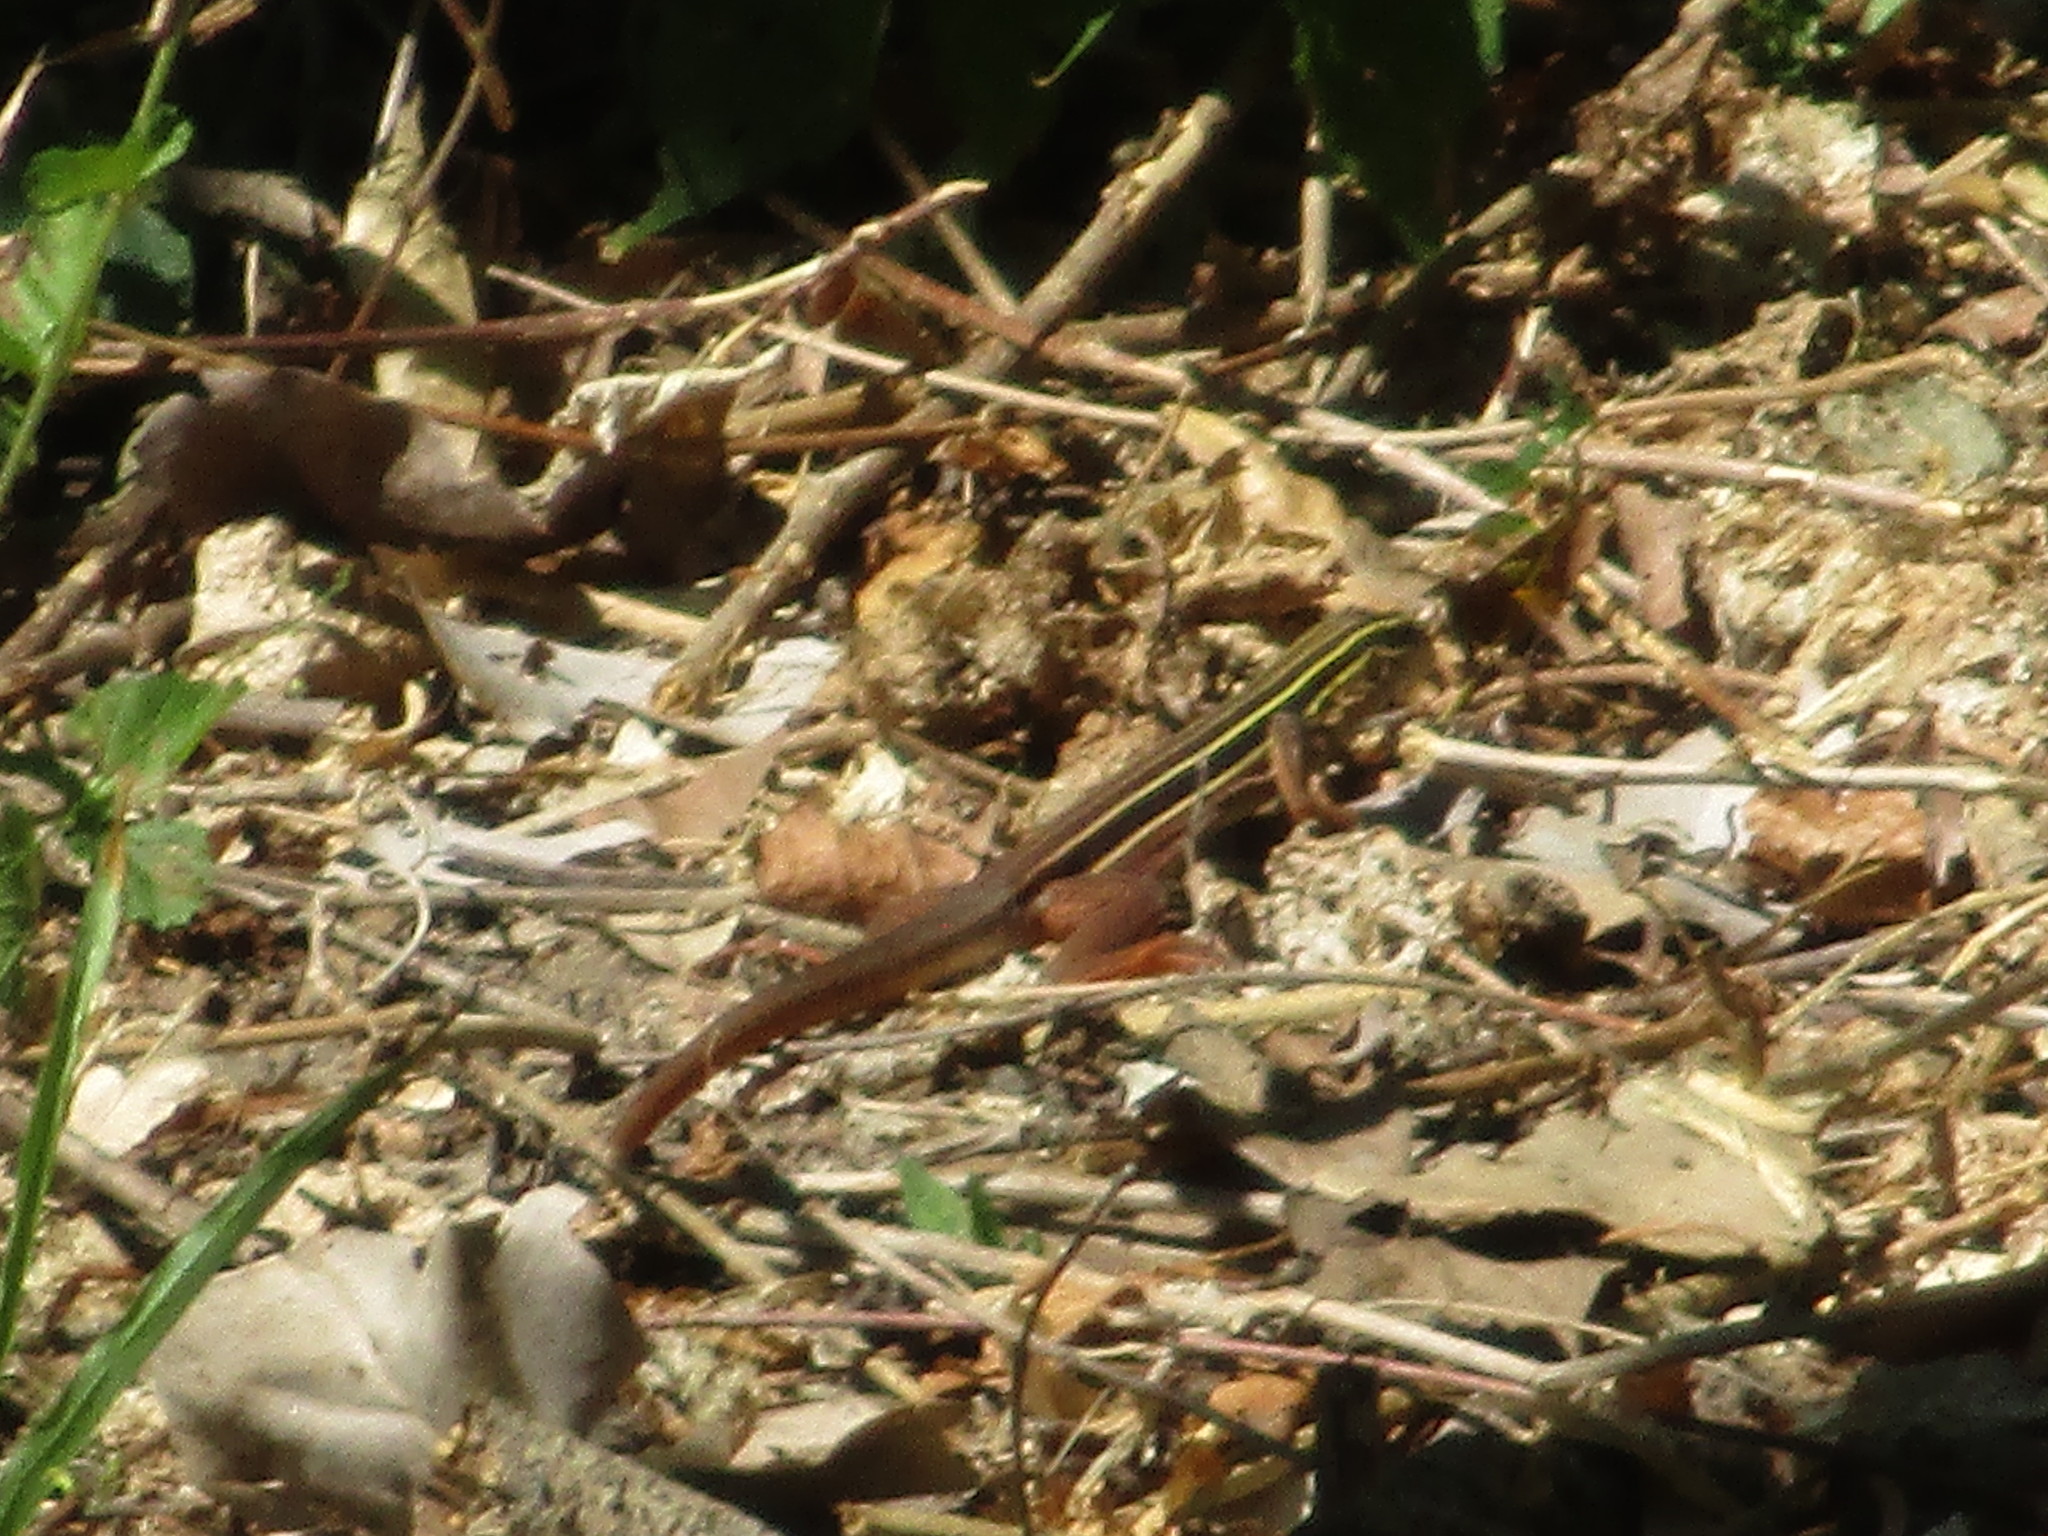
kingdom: Animalia
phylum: Chordata
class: Squamata
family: Teiidae
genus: Aspidoscelis
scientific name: Aspidoscelis communis
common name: Colima giant whiptail
